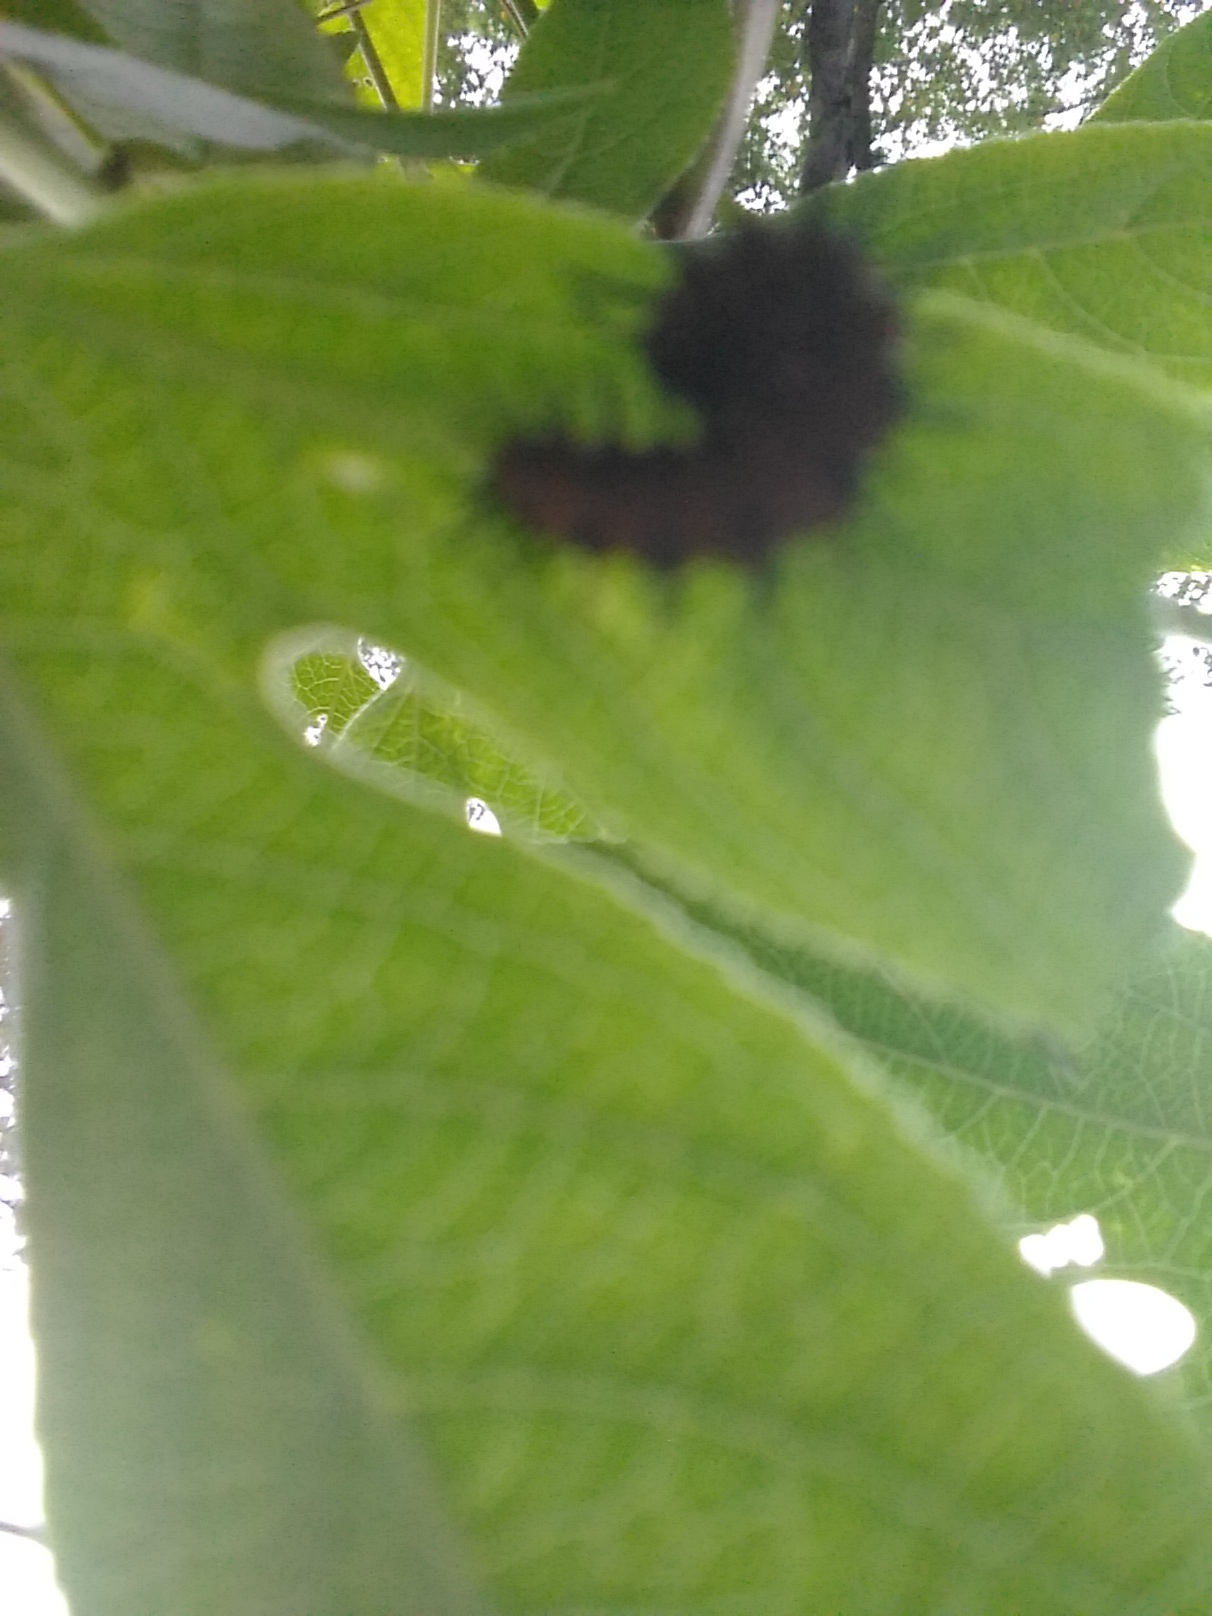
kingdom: Animalia
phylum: Arthropoda
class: Insecta
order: Lepidoptera
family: Nymphalidae
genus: Dione
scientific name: Dione vanillae
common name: Gulf fritillary
